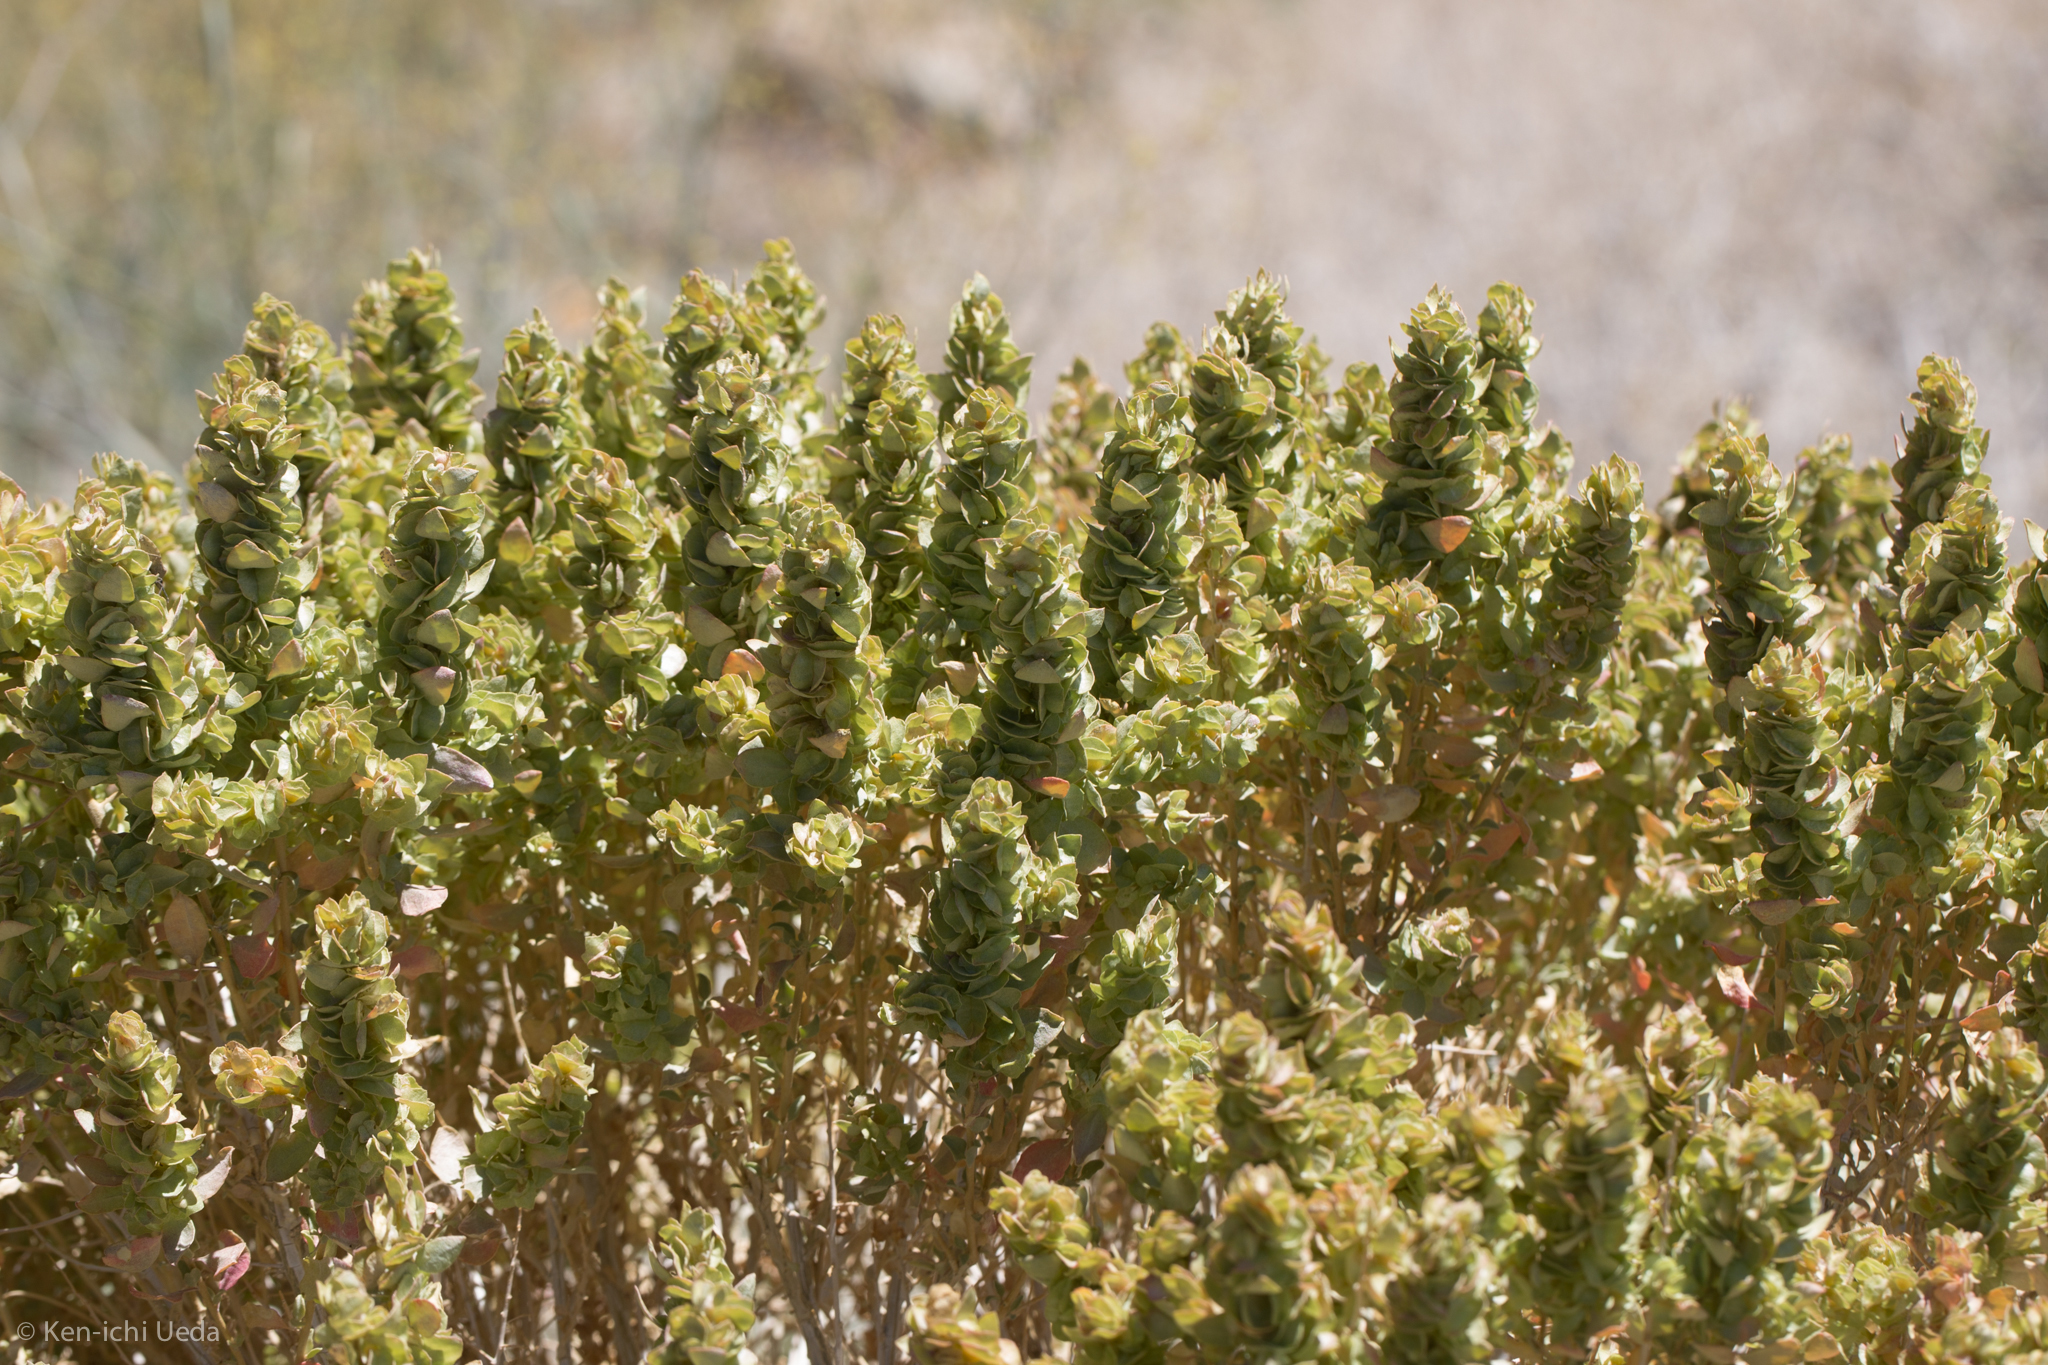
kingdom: Plantae
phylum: Tracheophyta
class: Magnoliopsida
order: Caryophyllales
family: Amaranthaceae
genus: Atriplex
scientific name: Atriplex confertifolia
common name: Shadscale
